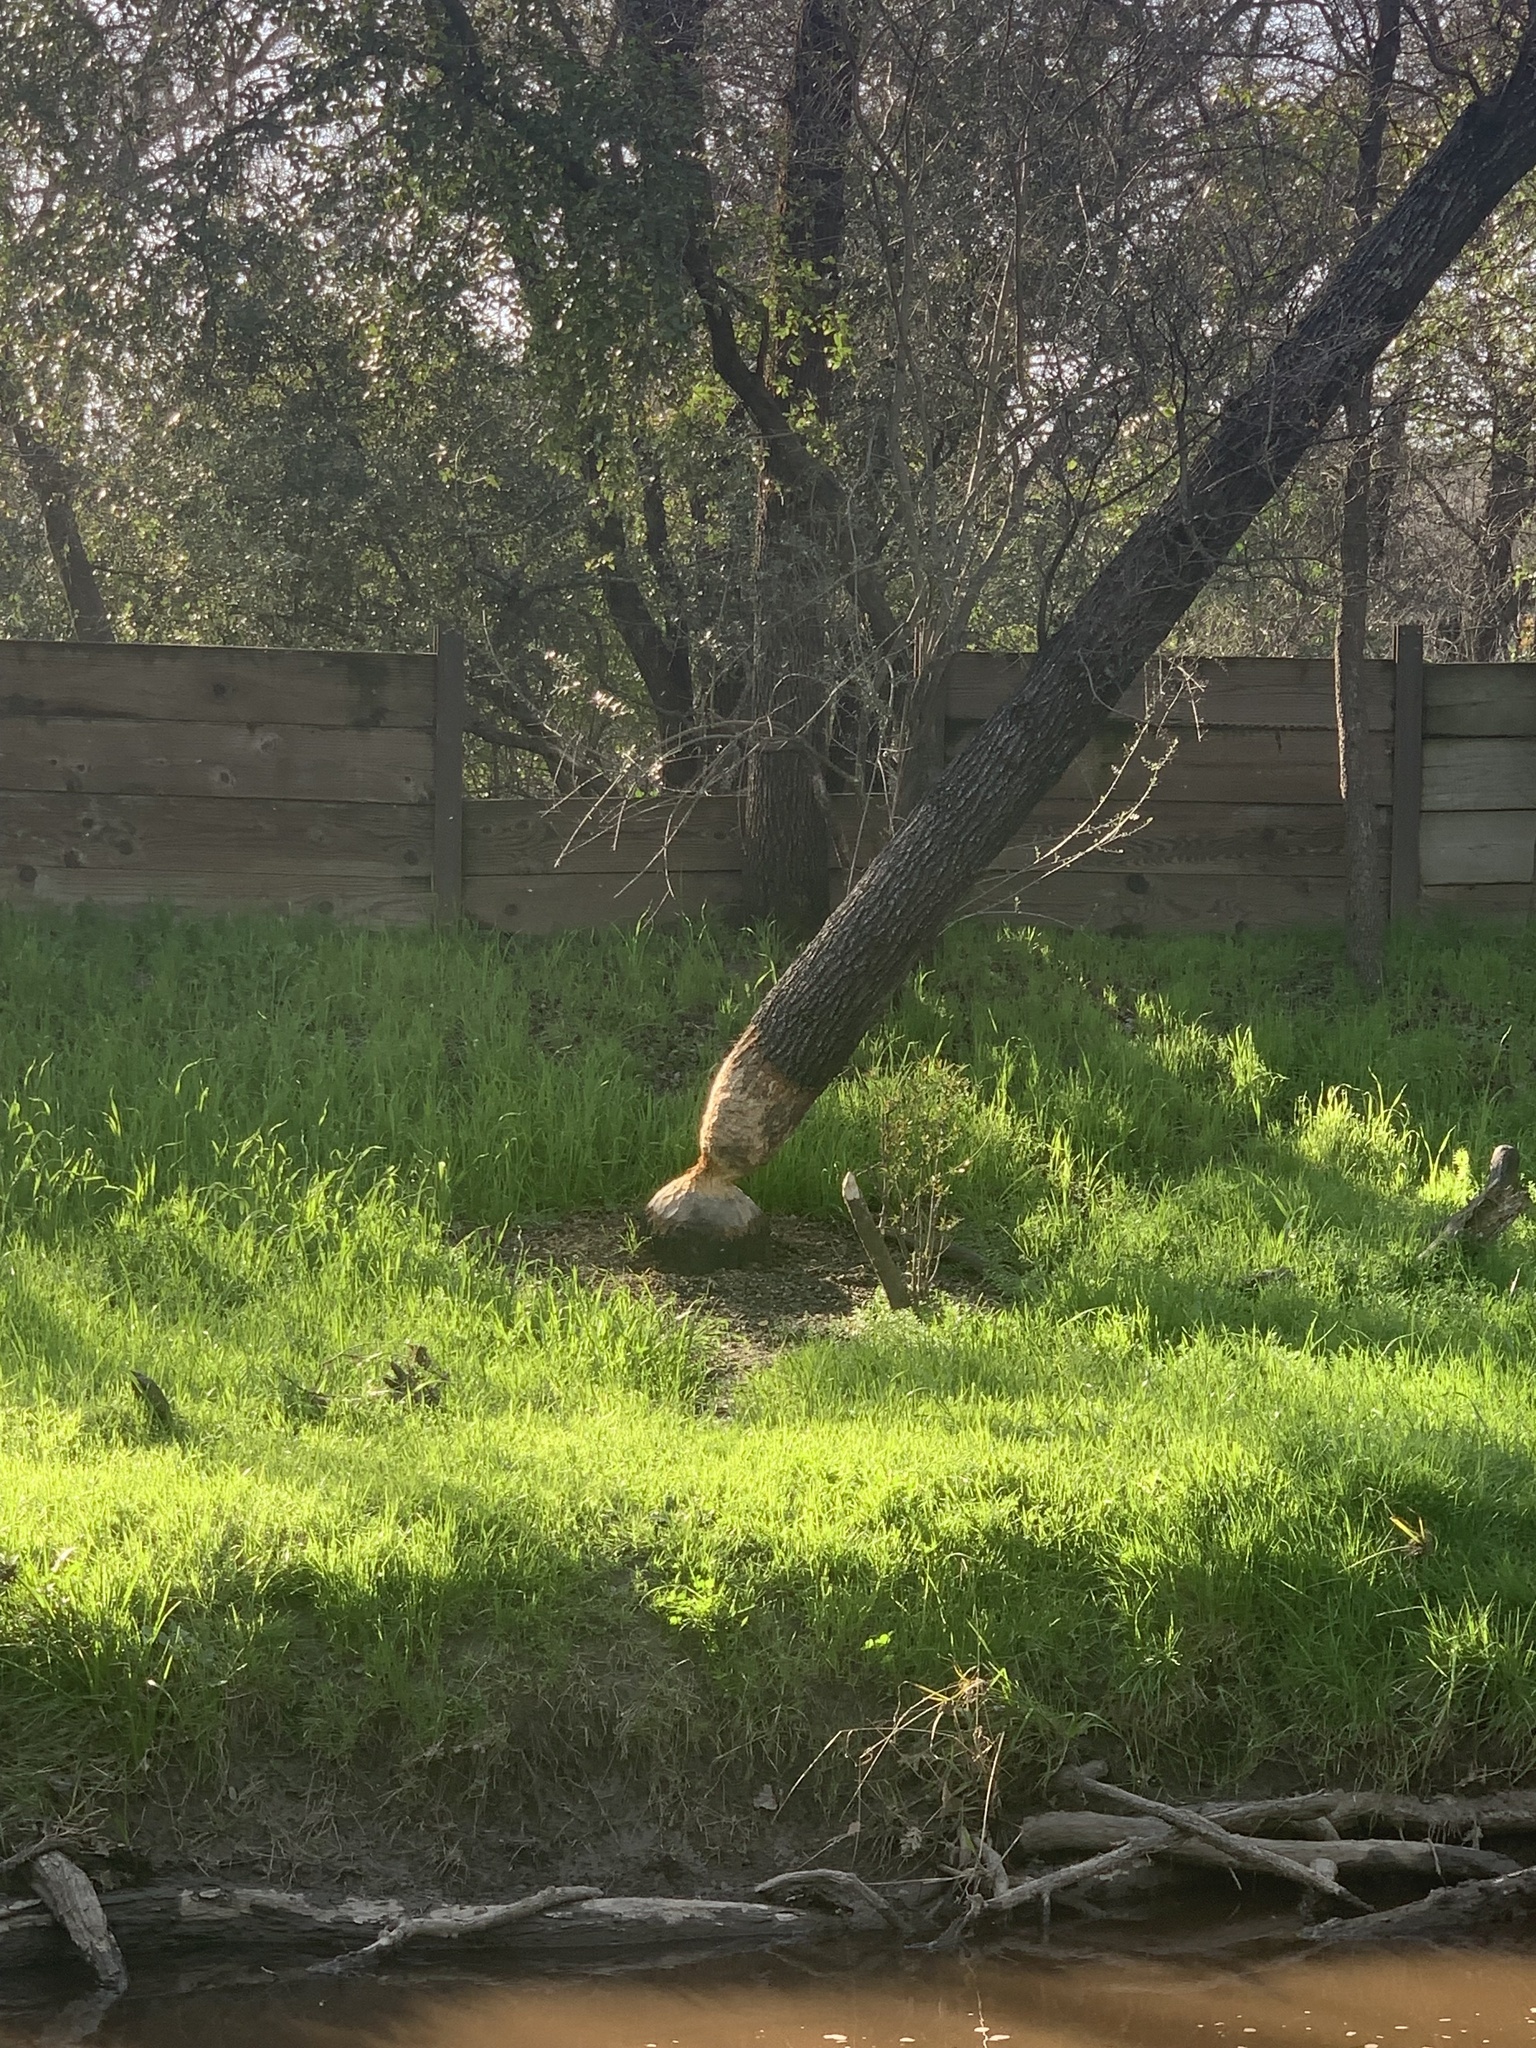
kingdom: Animalia
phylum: Chordata
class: Mammalia
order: Rodentia
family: Castoridae
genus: Castor
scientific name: Castor canadensis
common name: American beaver
